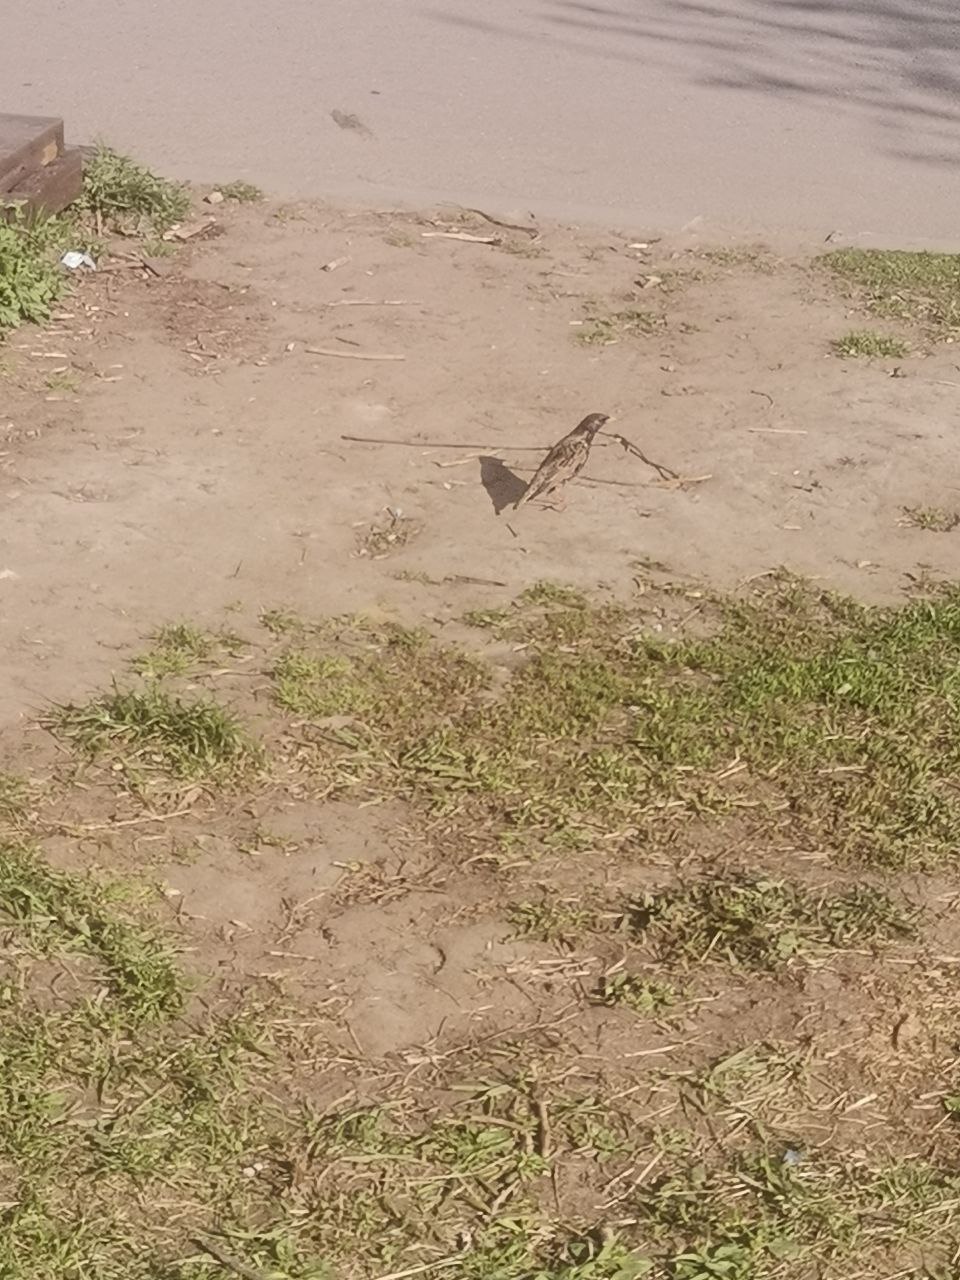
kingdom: Animalia
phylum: Chordata
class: Aves
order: Passeriformes
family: Sturnidae
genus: Sturnus
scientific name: Sturnus vulgaris
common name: Common starling
